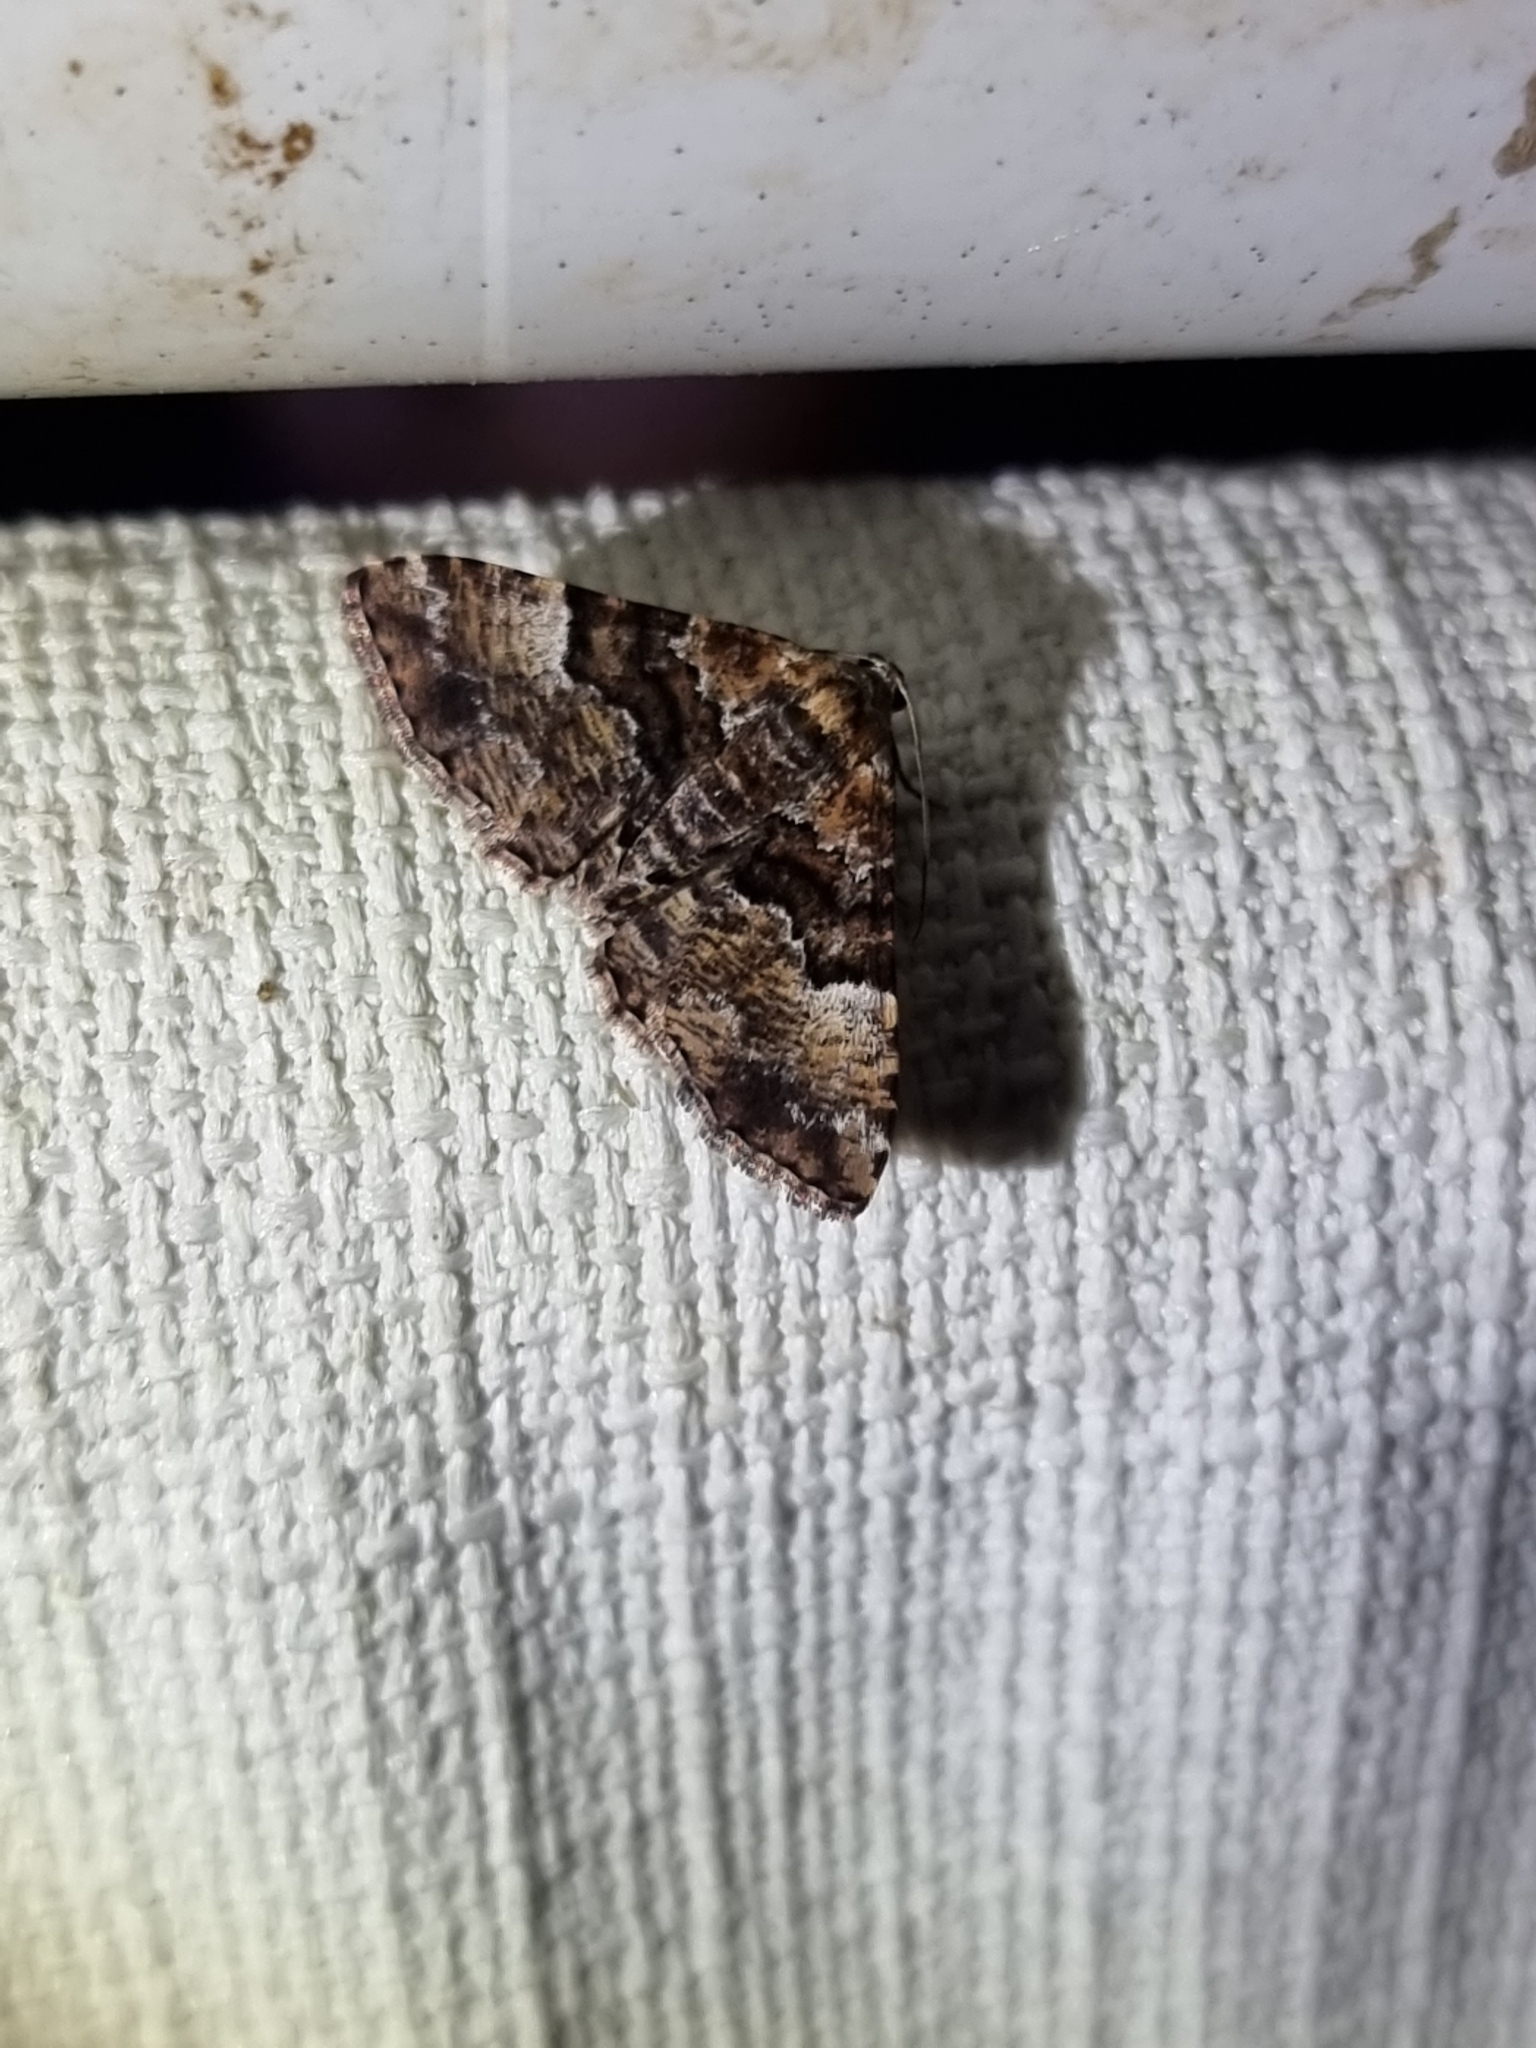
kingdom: Animalia
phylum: Arthropoda
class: Insecta
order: Lepidoptera
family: Geometridae
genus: Aporoctena
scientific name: Aporoctena scierodes
